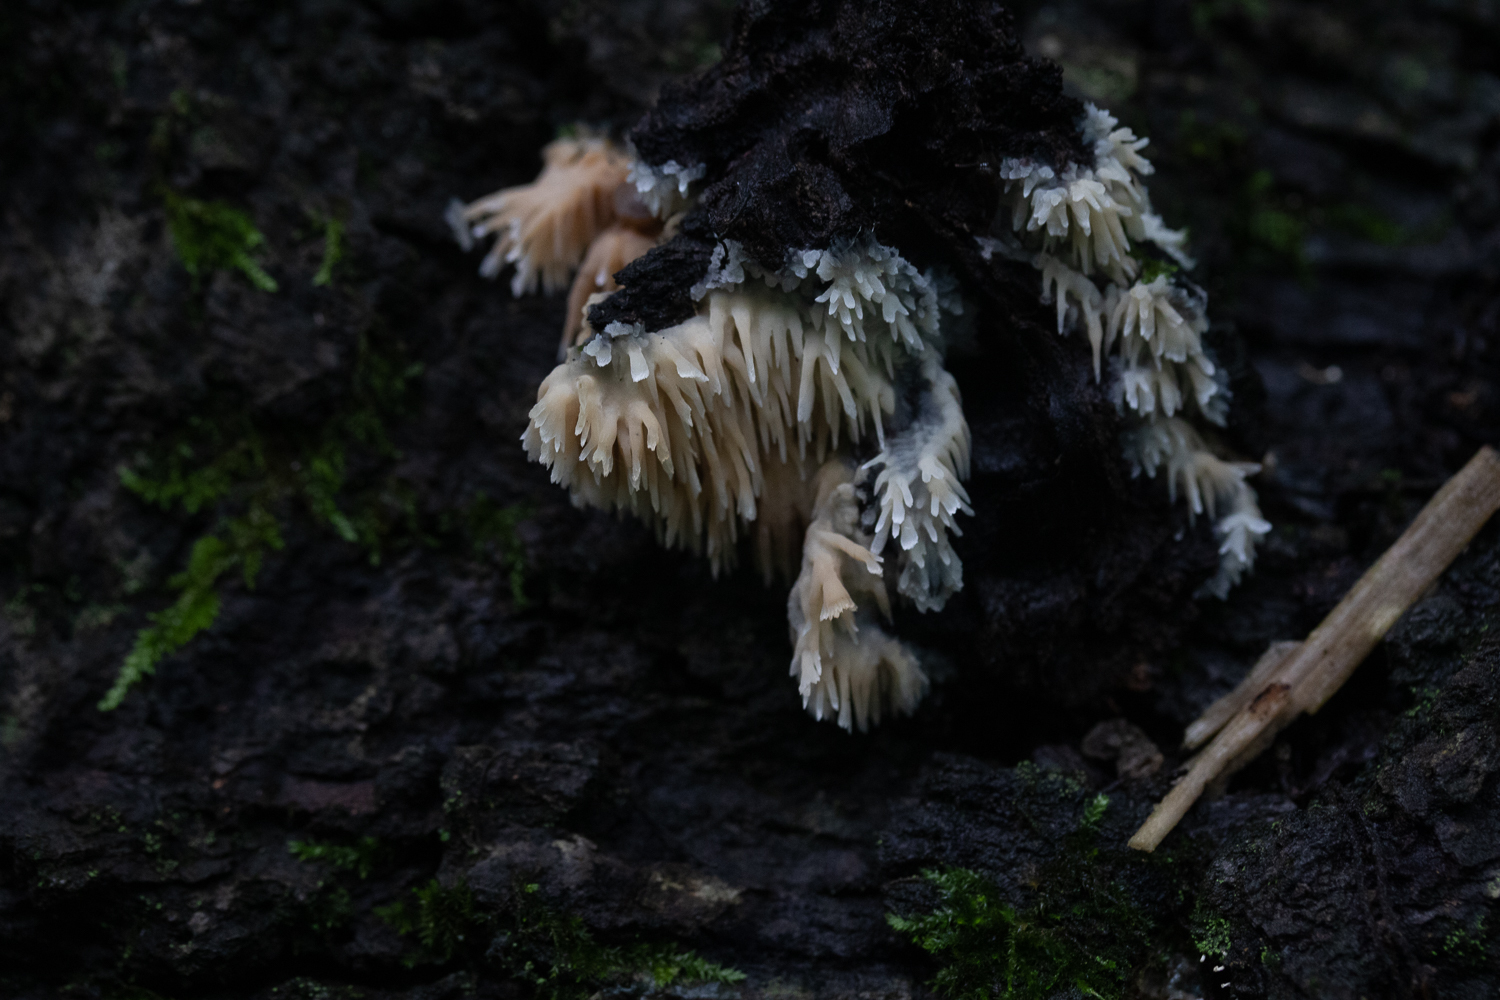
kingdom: Fungi
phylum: Basidiomycota
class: Agaricomycetes
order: Agaricales
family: Radulomycetaceae
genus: Radulomyces
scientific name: Radulomyces copelandii
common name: Asian beauty
